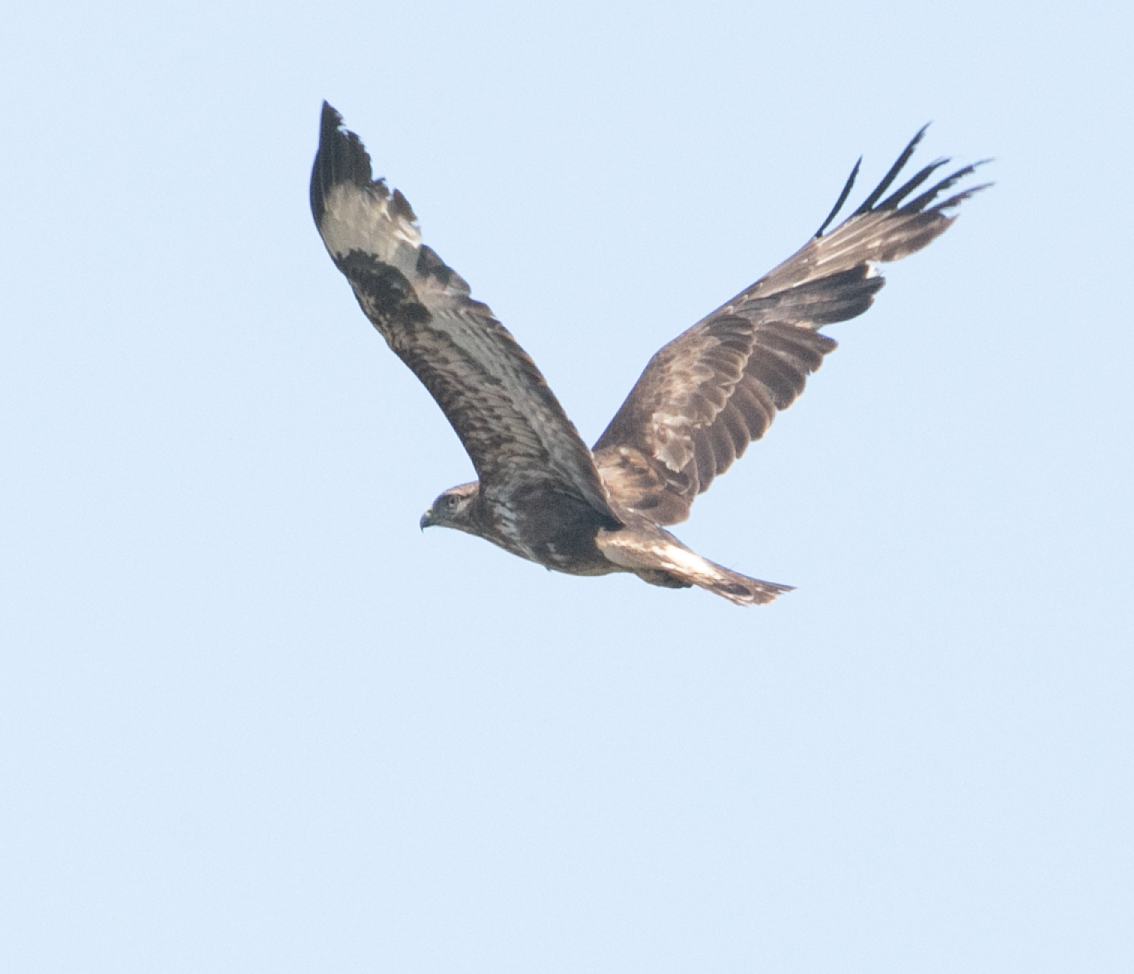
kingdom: Animalia
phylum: Chordata
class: Aves
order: Accipitriformes
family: Accipitridae
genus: Buteo
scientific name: Buteo buteo
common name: Common buzzard
